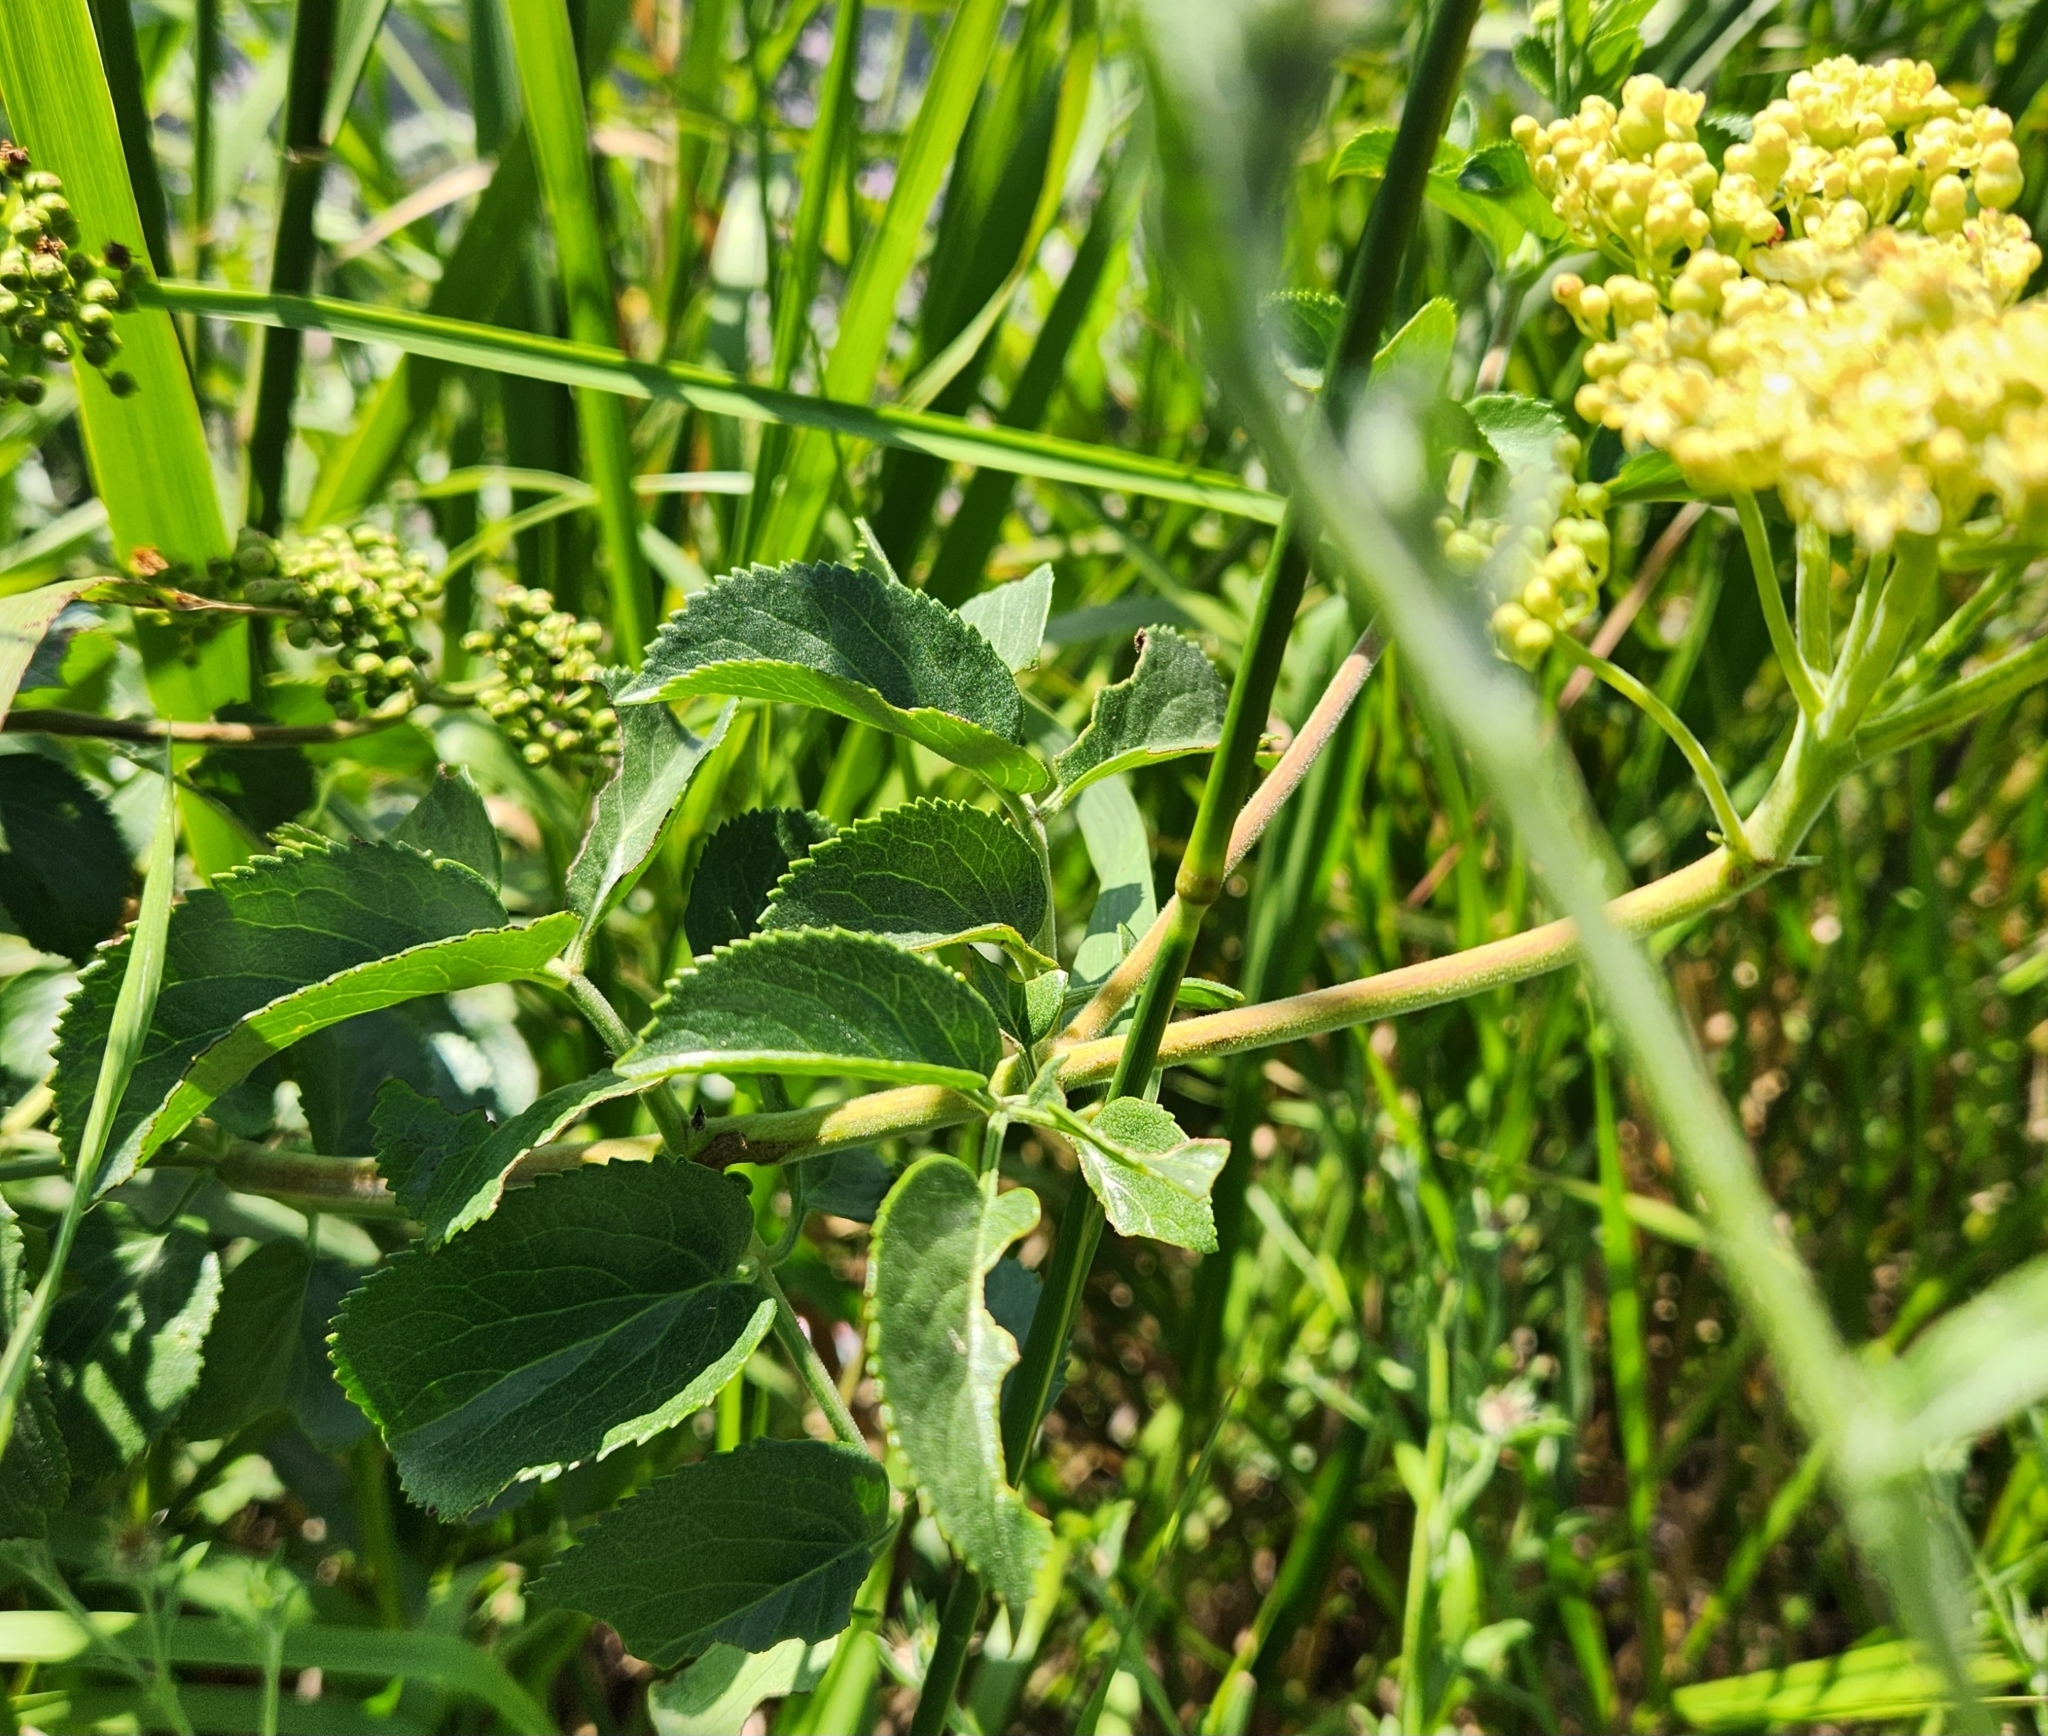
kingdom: Plantae
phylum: Tracheophyta
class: Magnoliopsida
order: Dipsacales
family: Viburnaceae
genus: Sambucus
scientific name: Sambucus cerulea
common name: Blue elder
